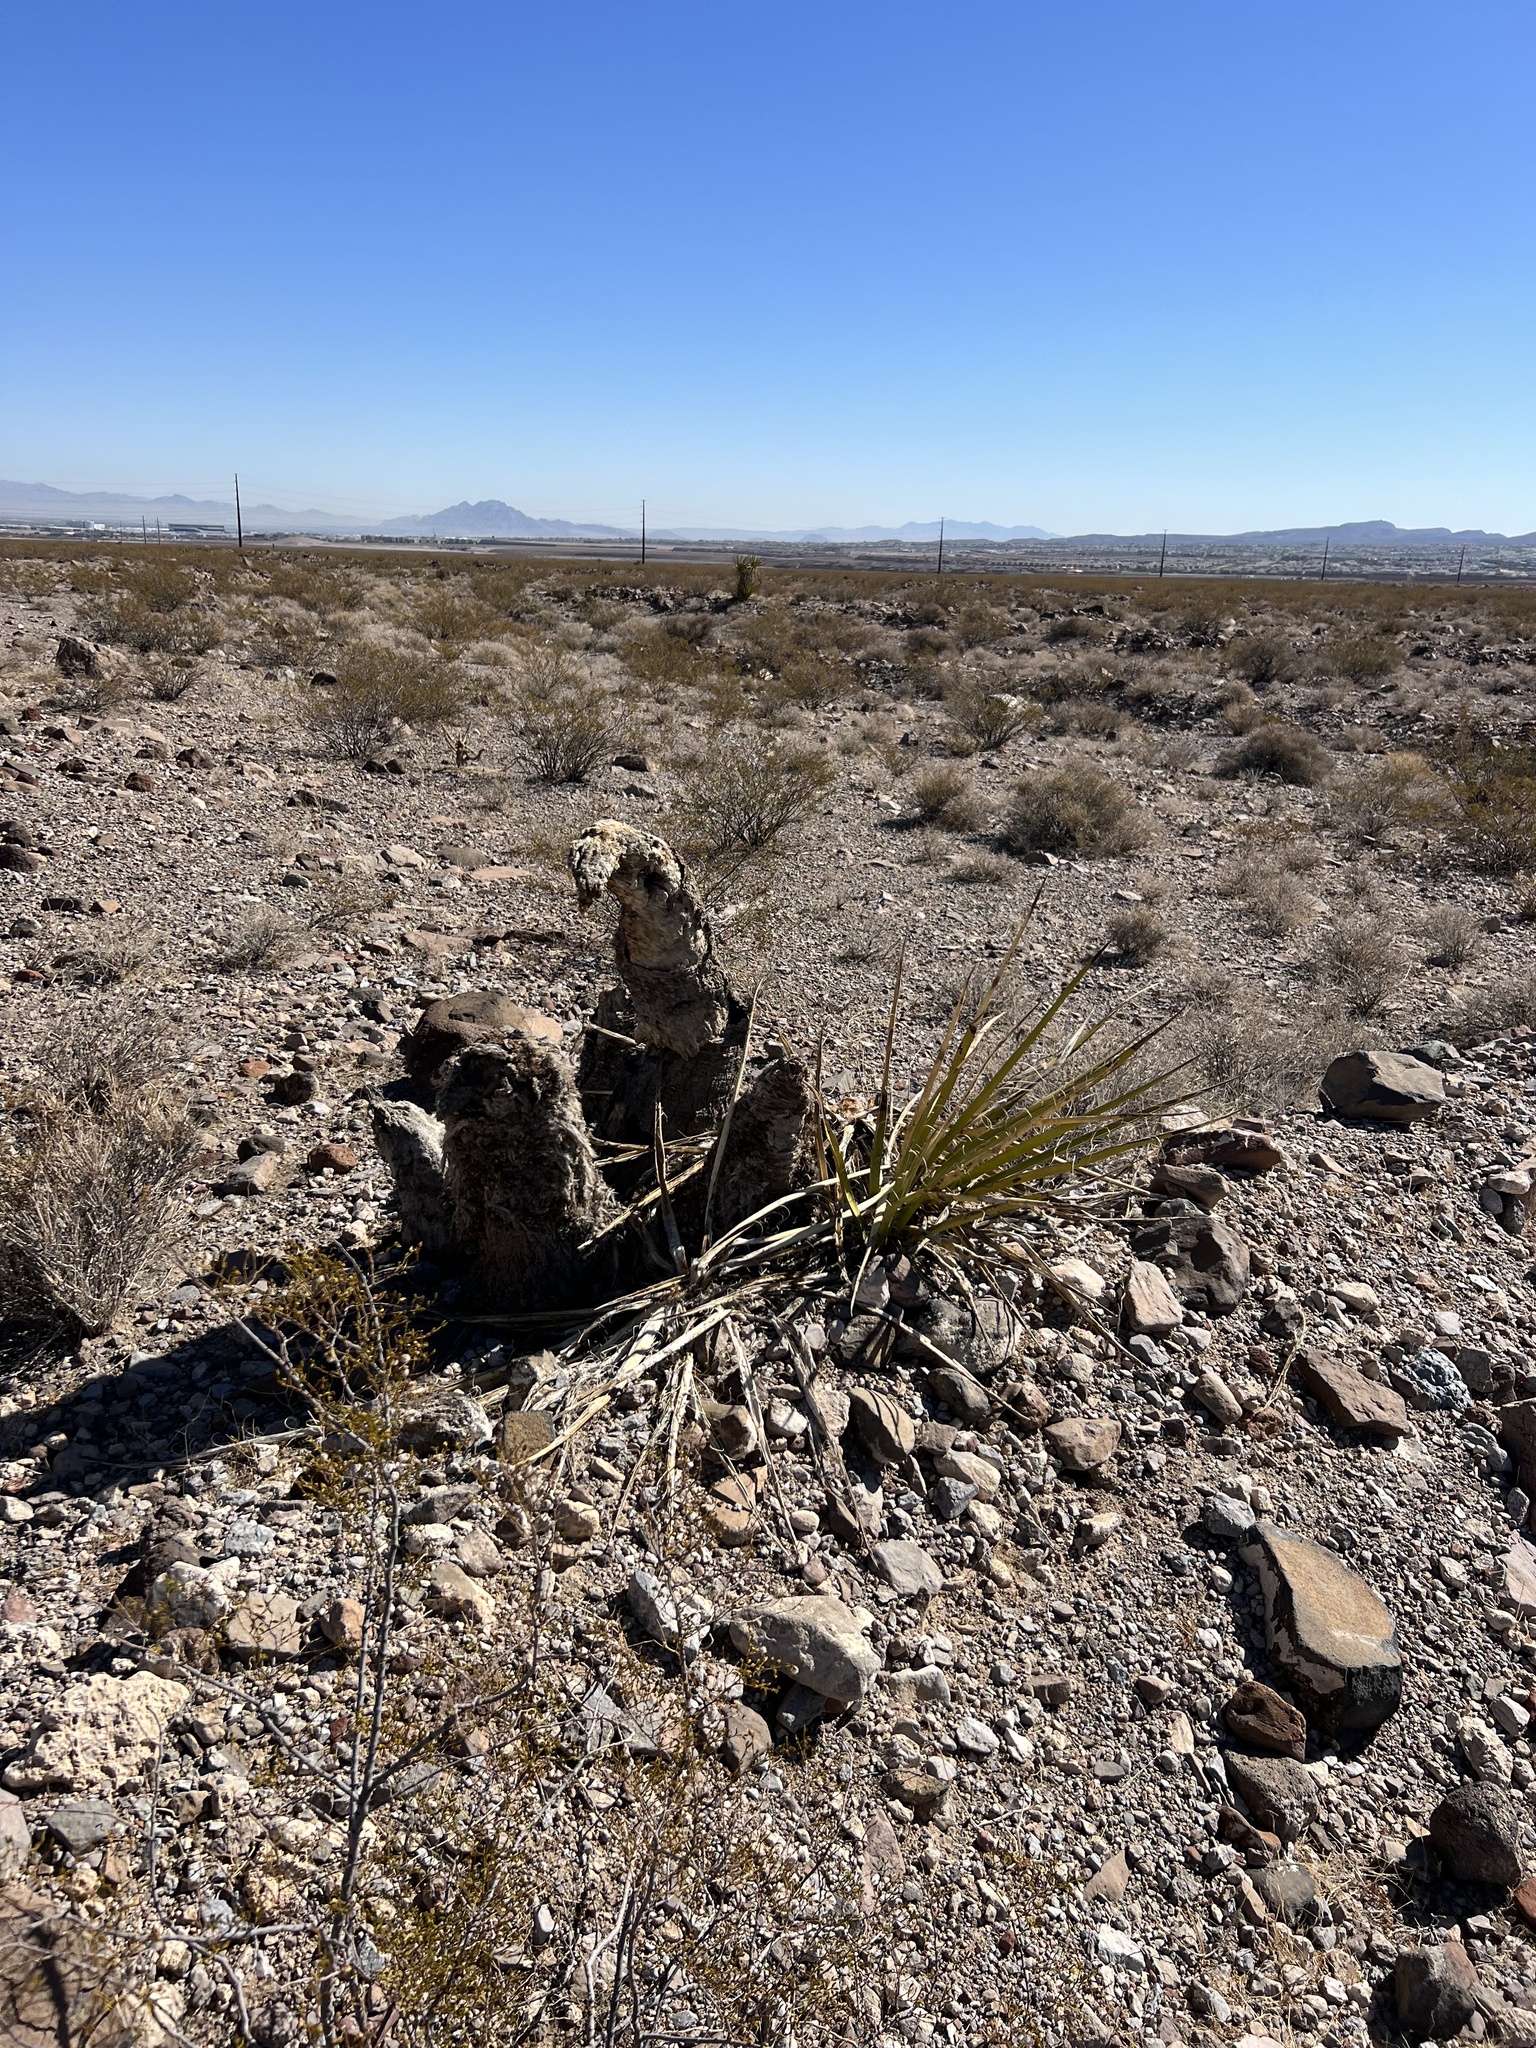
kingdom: Plantae
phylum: Tracheophyta
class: Liliopsida
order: Asparagales
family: Asparagaceae
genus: Yucca
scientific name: Yucca schidigera
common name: Mojave yucca
